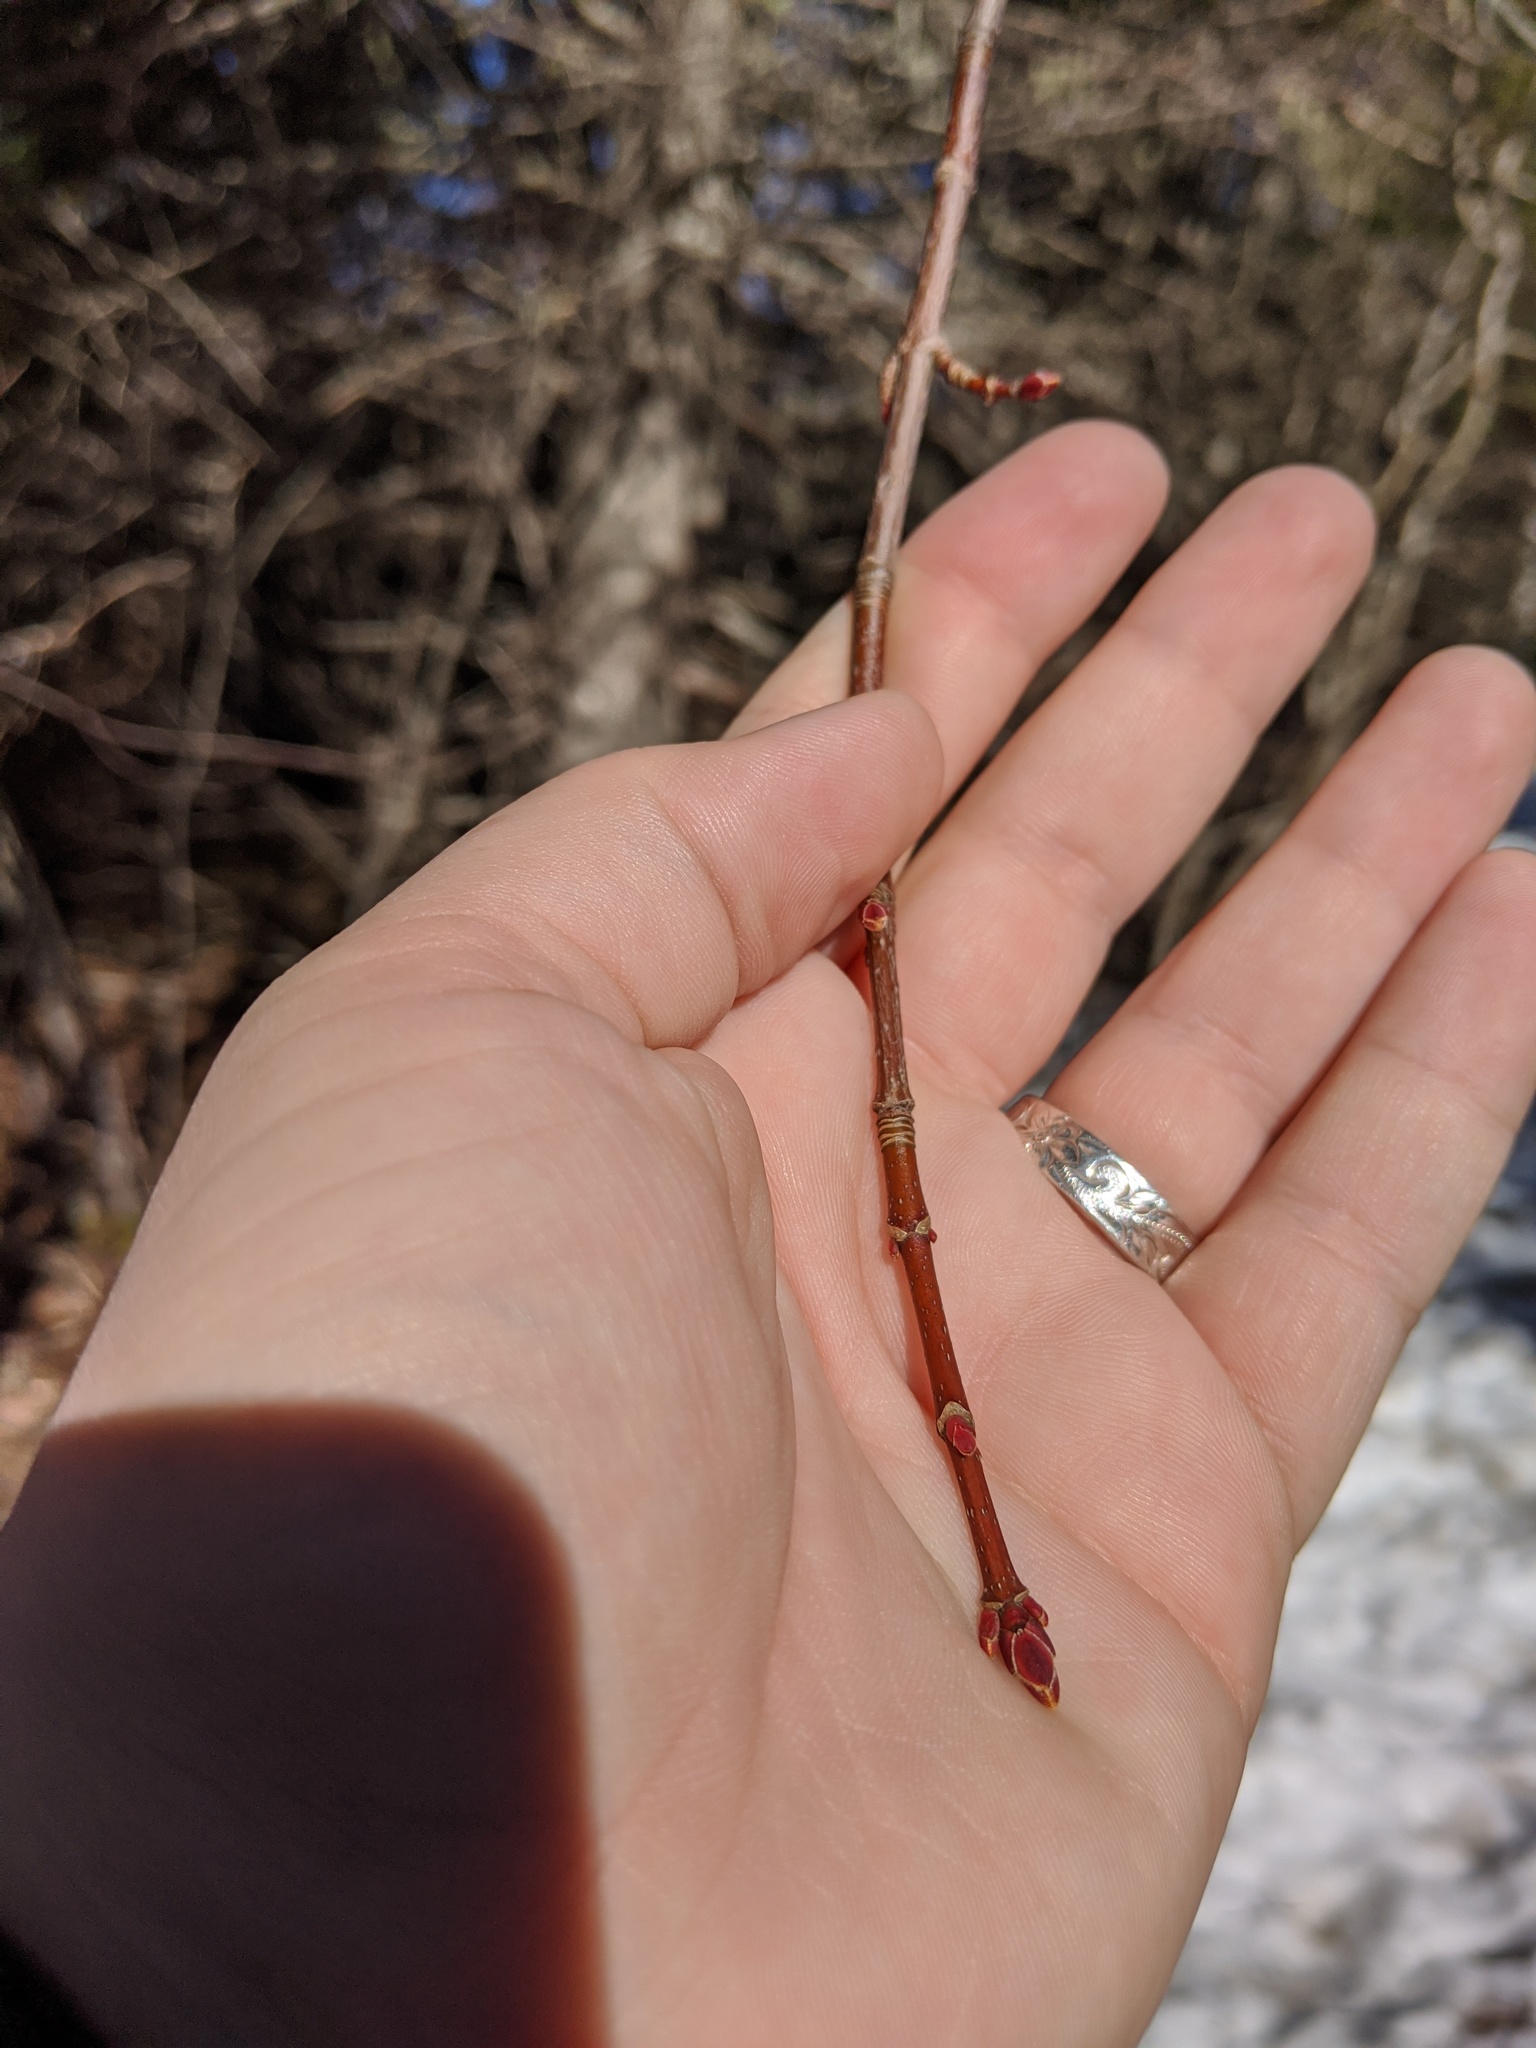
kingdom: Plantae
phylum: Tracheophyta
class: Magnoliopsida
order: Sapindales
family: Sapindaceae
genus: Acer
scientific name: Acer rubrum
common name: Red maple
